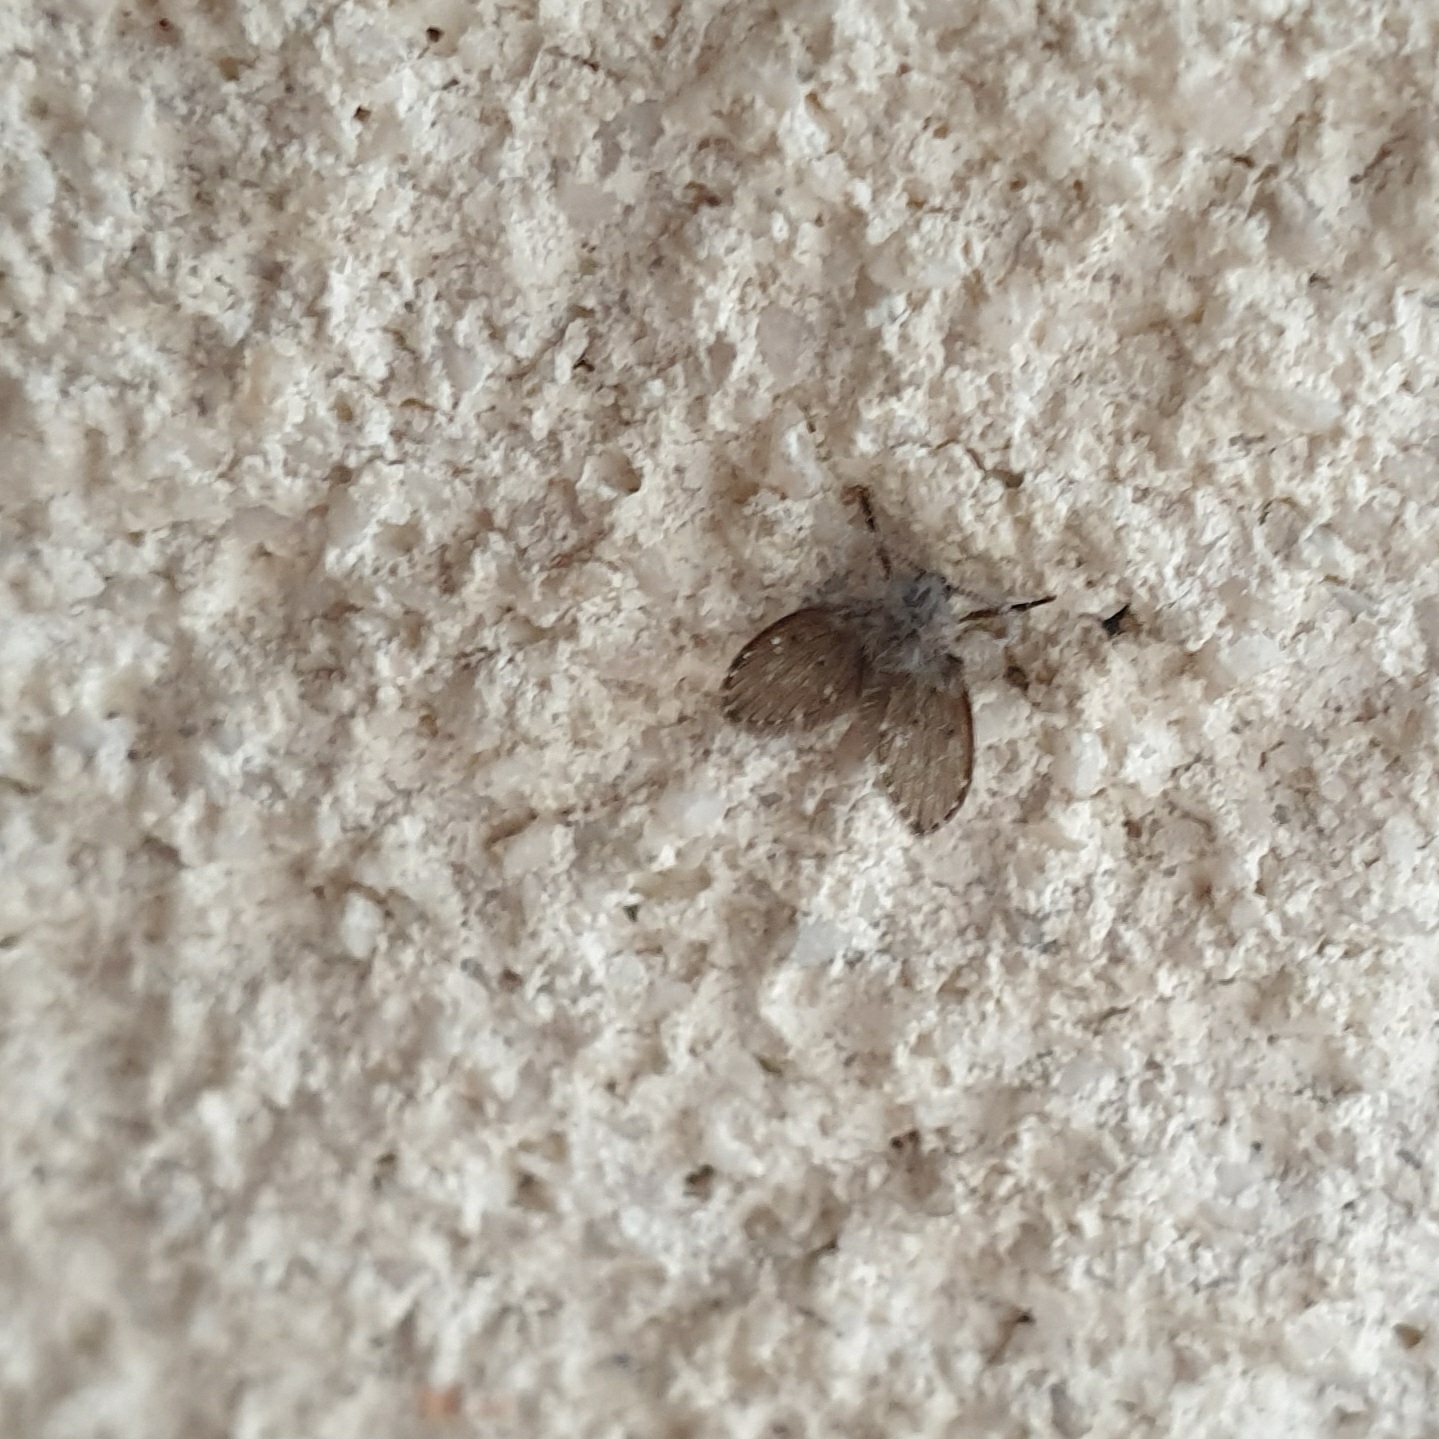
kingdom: Animalia
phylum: Arthropoda
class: Insecta
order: Diptera
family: Psychodidae
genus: Clogmia
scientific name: Clogmia albipunctatus
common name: White-spotted moth fly
